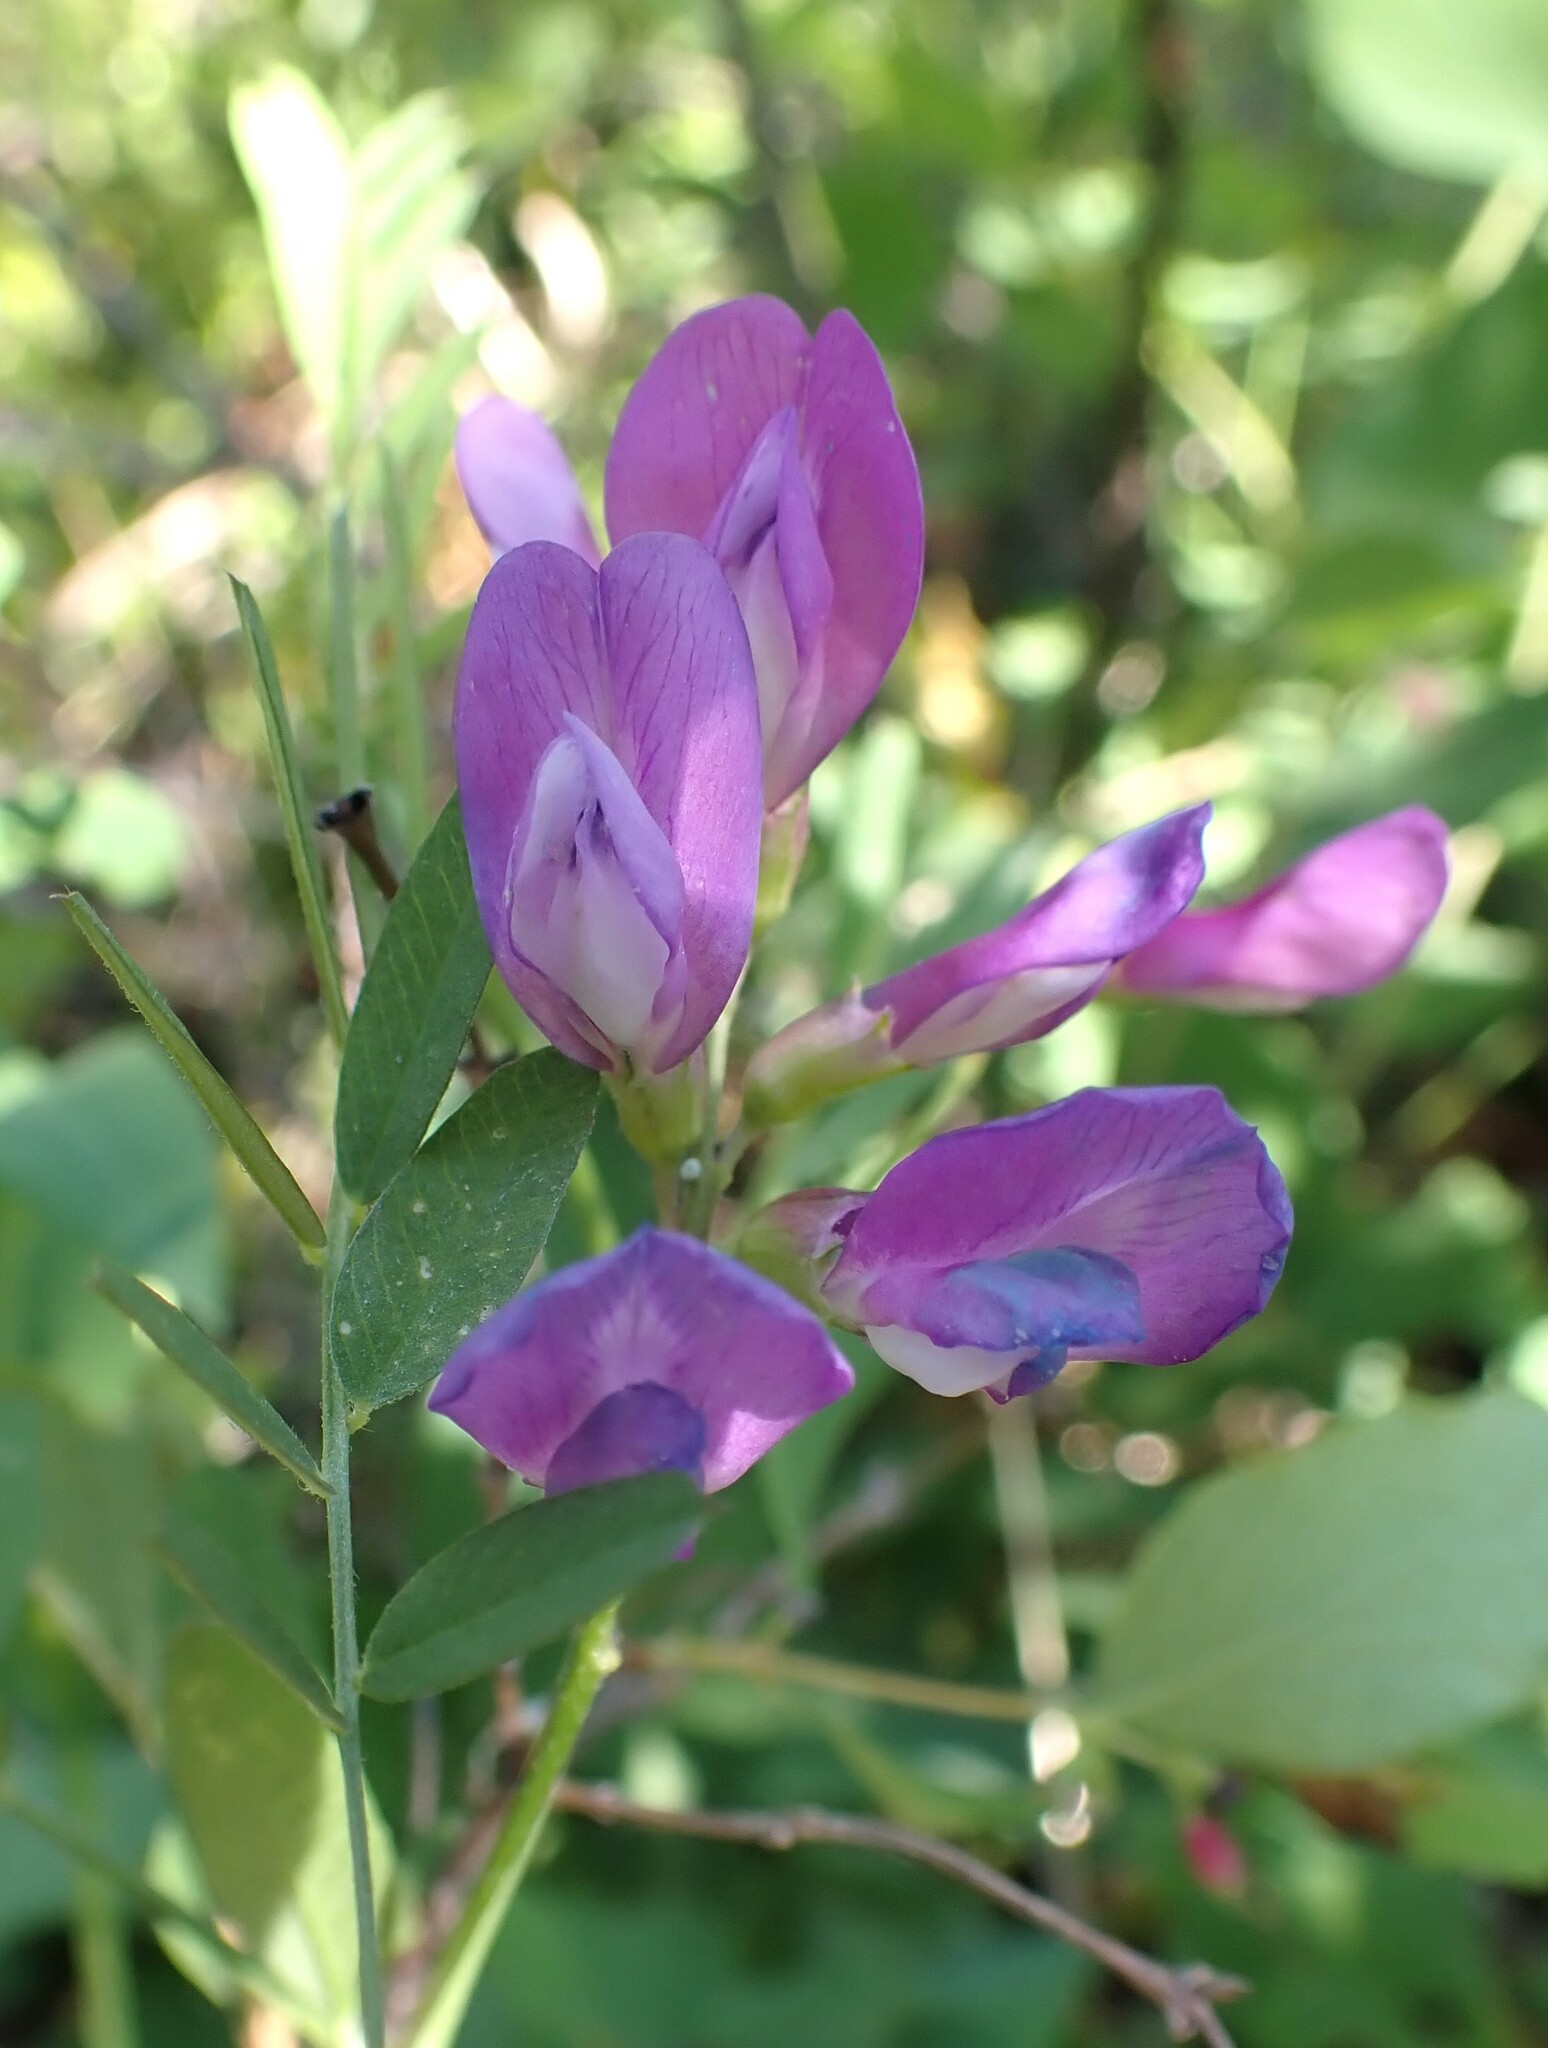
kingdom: Plantae
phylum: Tracheophyta
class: Magnoliopsida
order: Fabales
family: Fabaceae
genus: Vicia
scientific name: Vicia americana
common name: American vetch
